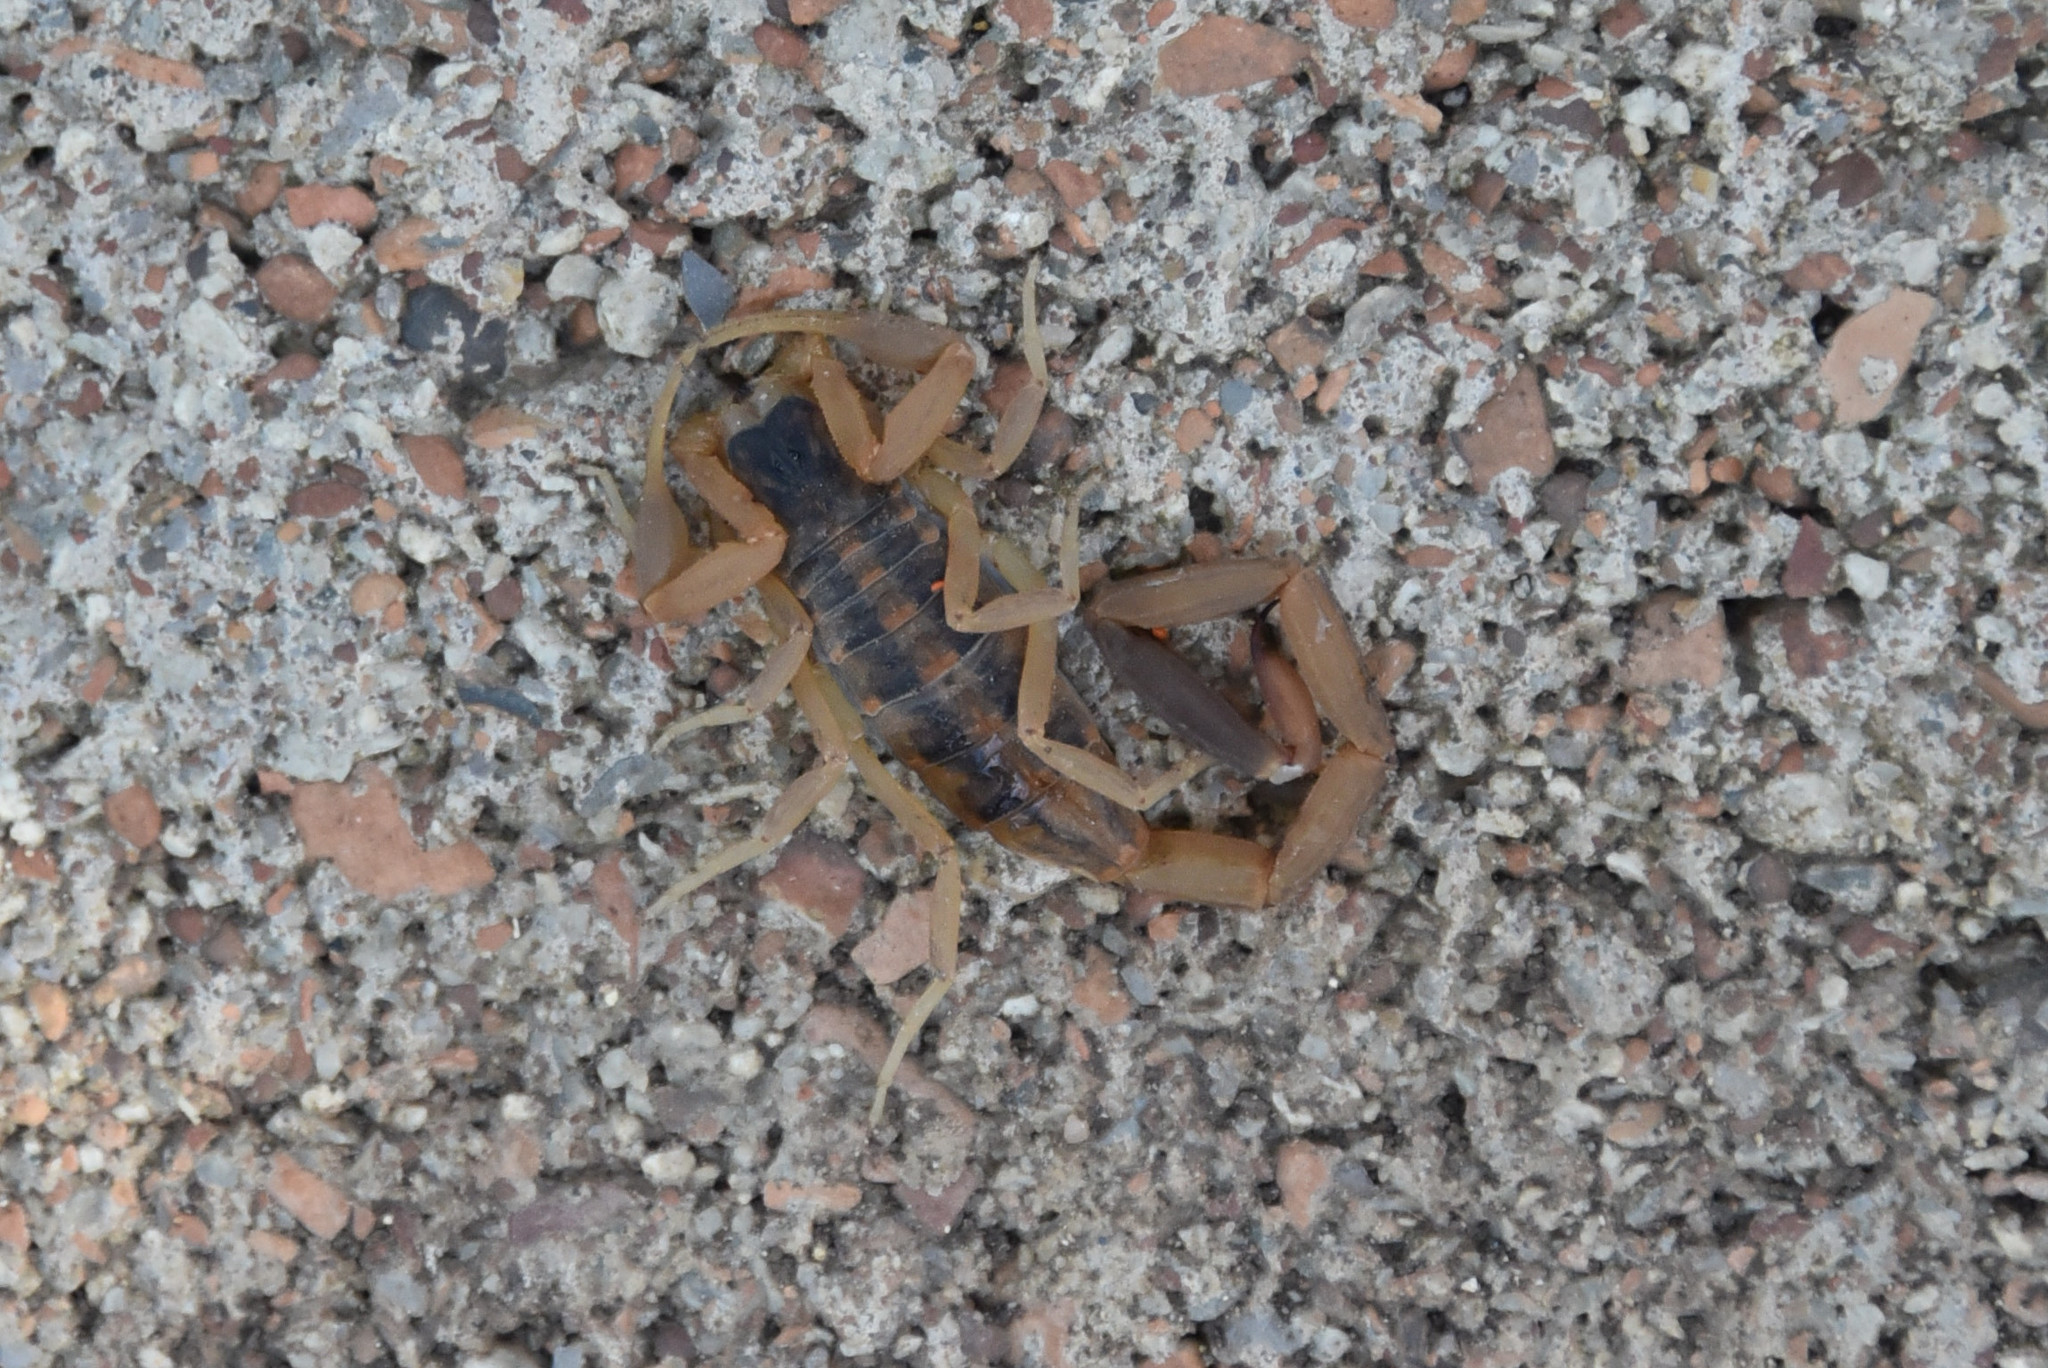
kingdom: Animalia
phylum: Arthropoda
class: Arachnida
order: Scorpiones
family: Buthidae
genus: Centruroides
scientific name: Centruroides vittatus
